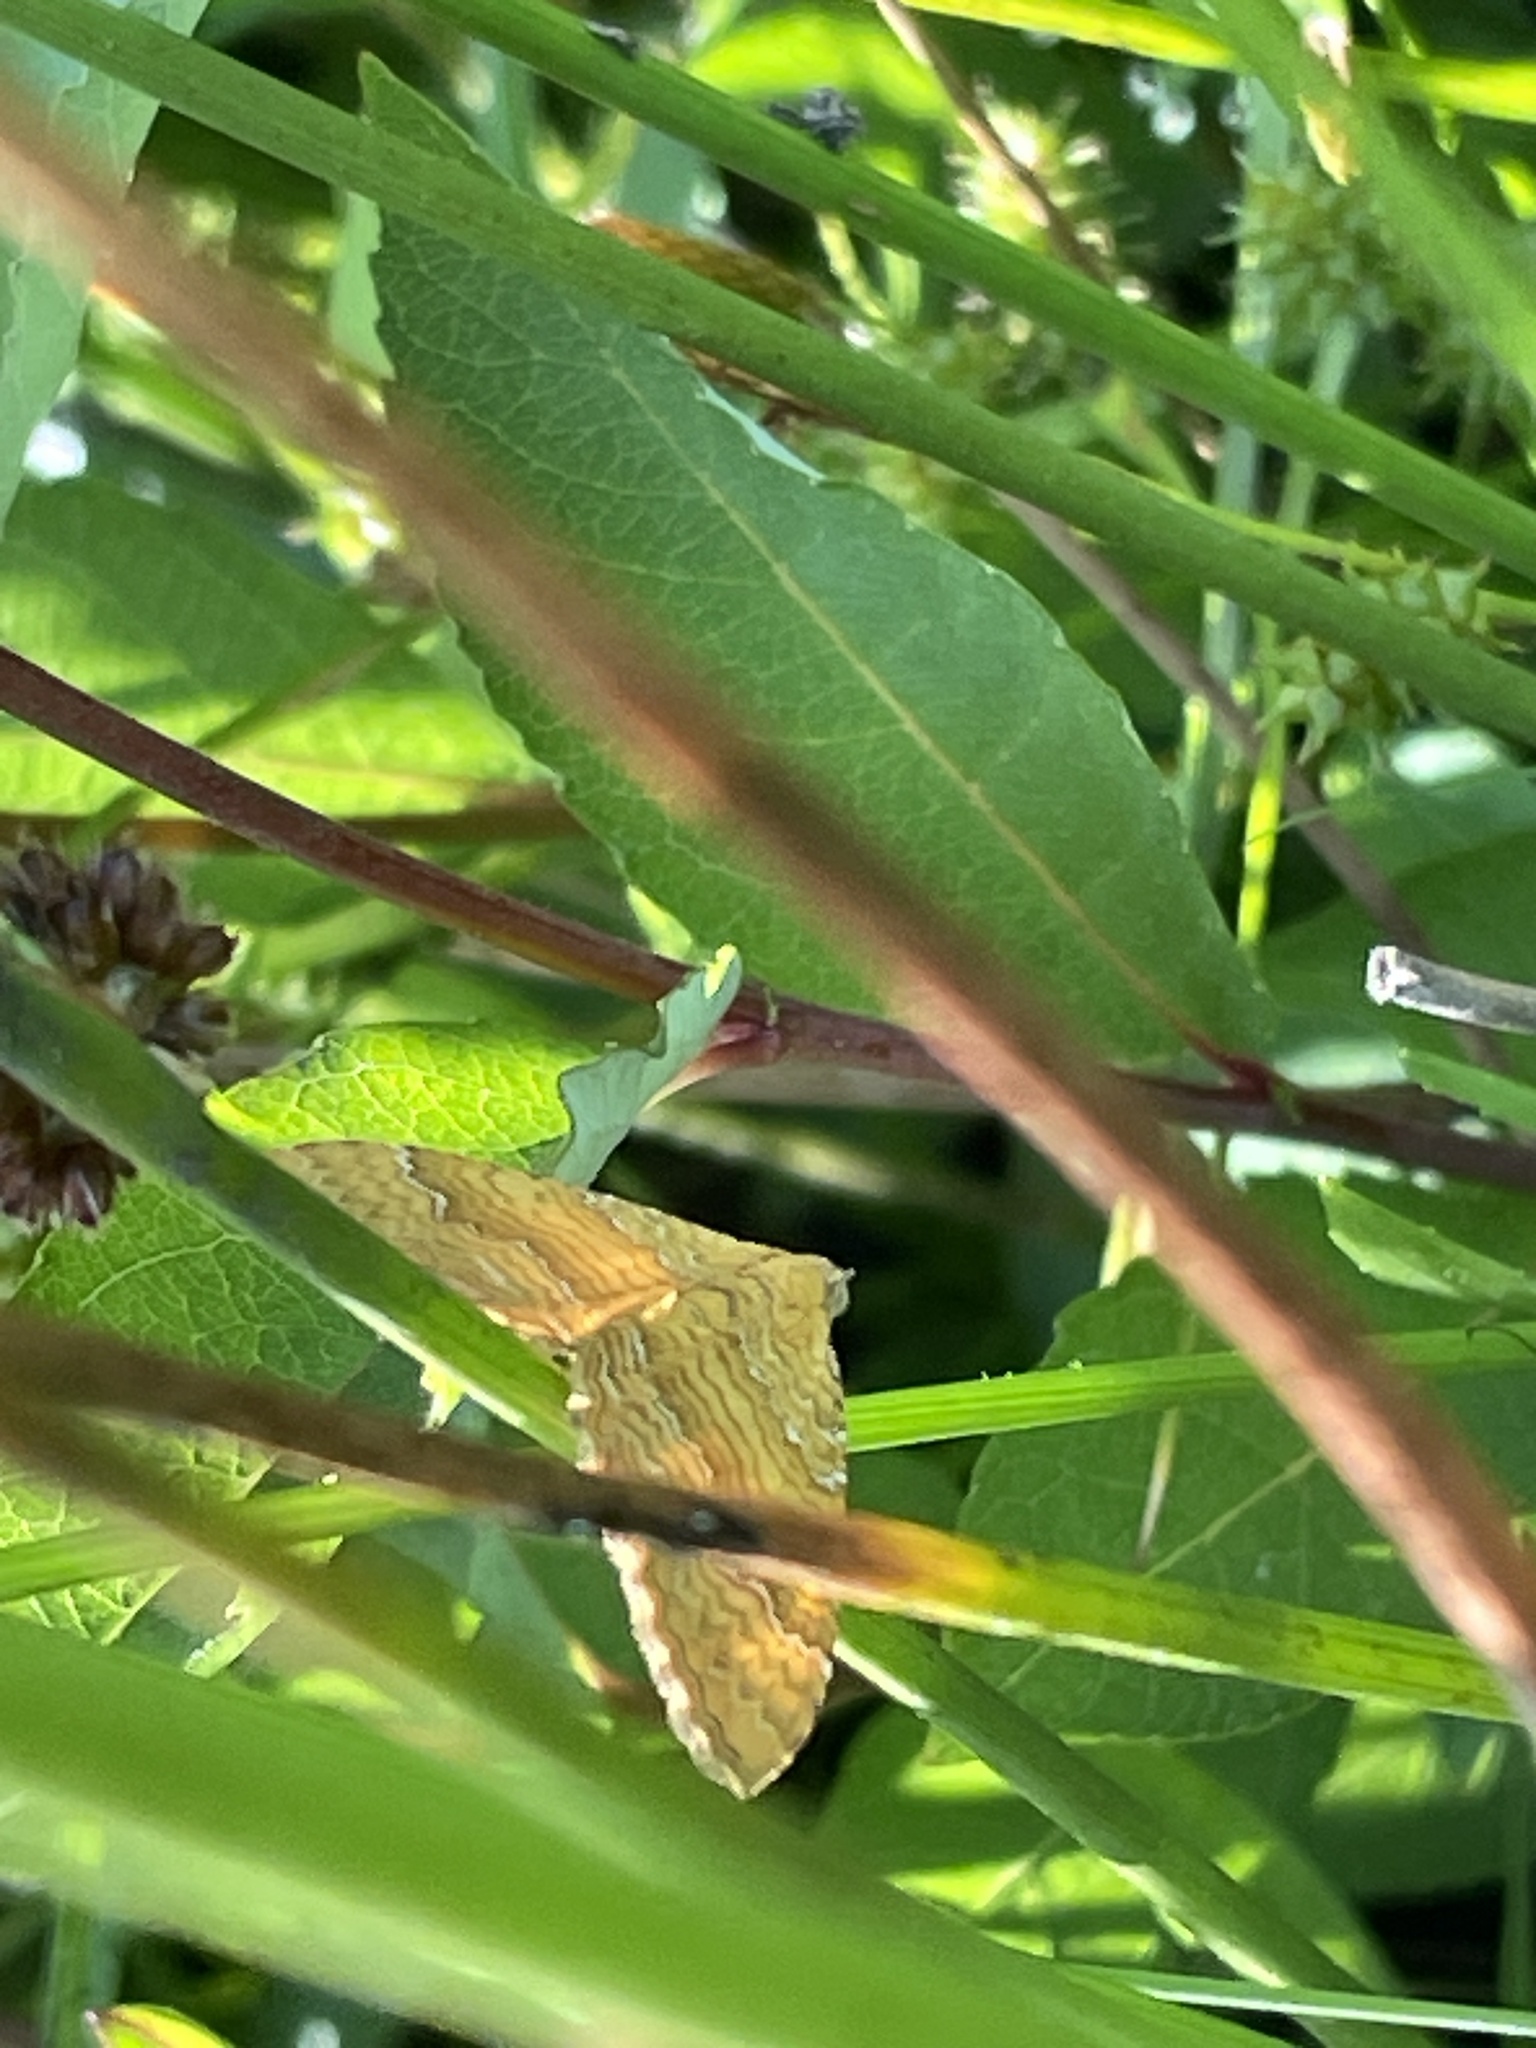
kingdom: Animalia
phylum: Arthropoda
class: Insecta
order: Lepidoptera
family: Geometridae
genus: Camptogramma
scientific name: Camptogramma bilineata
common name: Yellow shell
